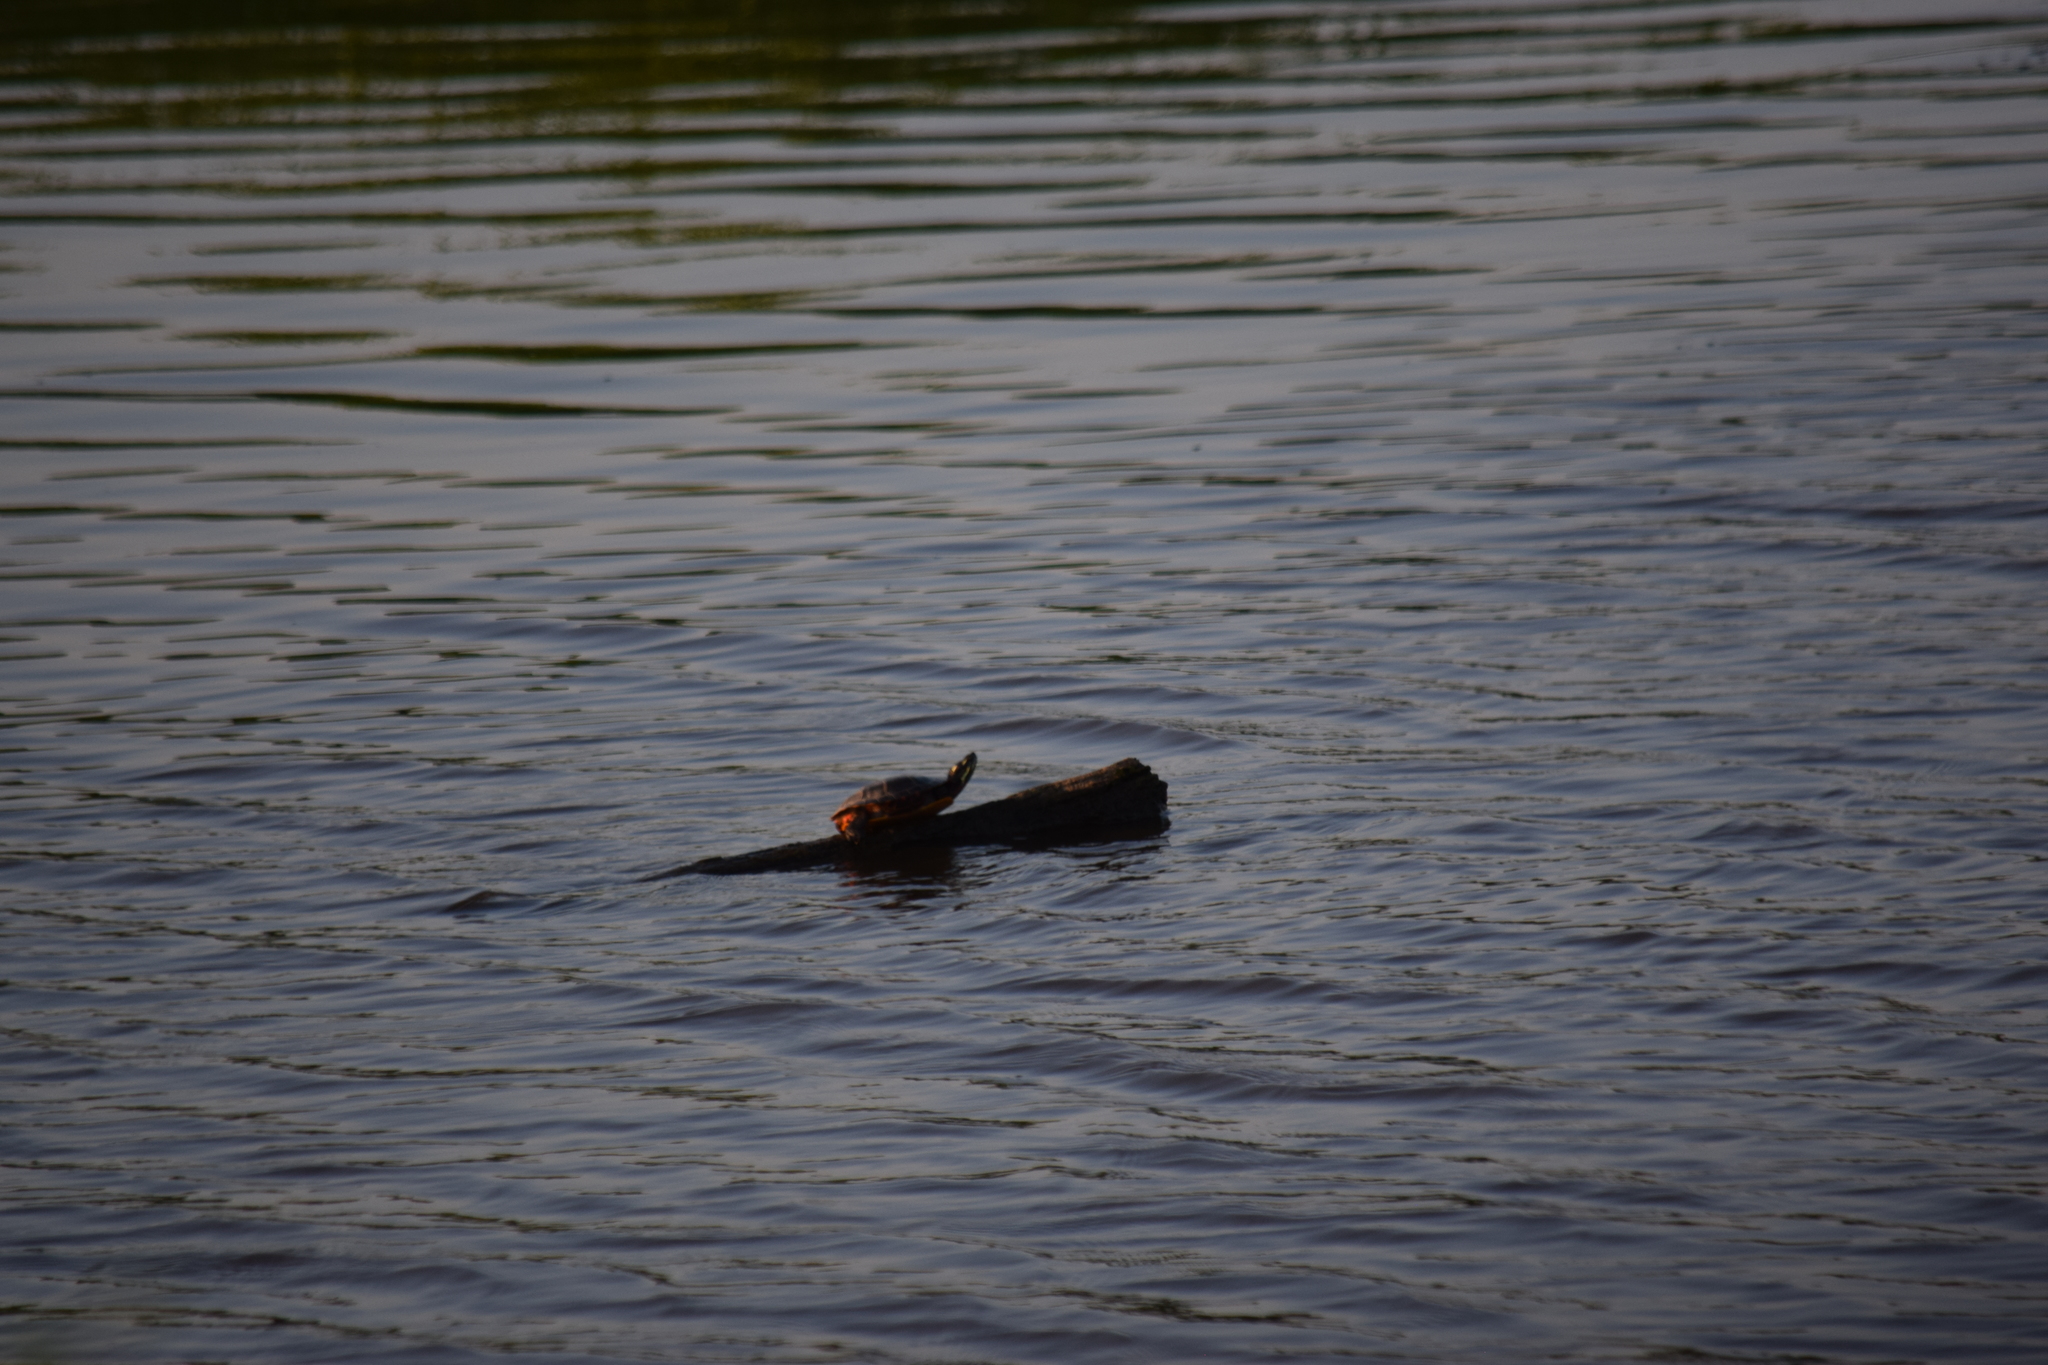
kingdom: Animalia
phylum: Chordata
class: Testudines
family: Emydidae
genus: Chrysemys
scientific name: Chrysemys picta
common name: Painted turtle
